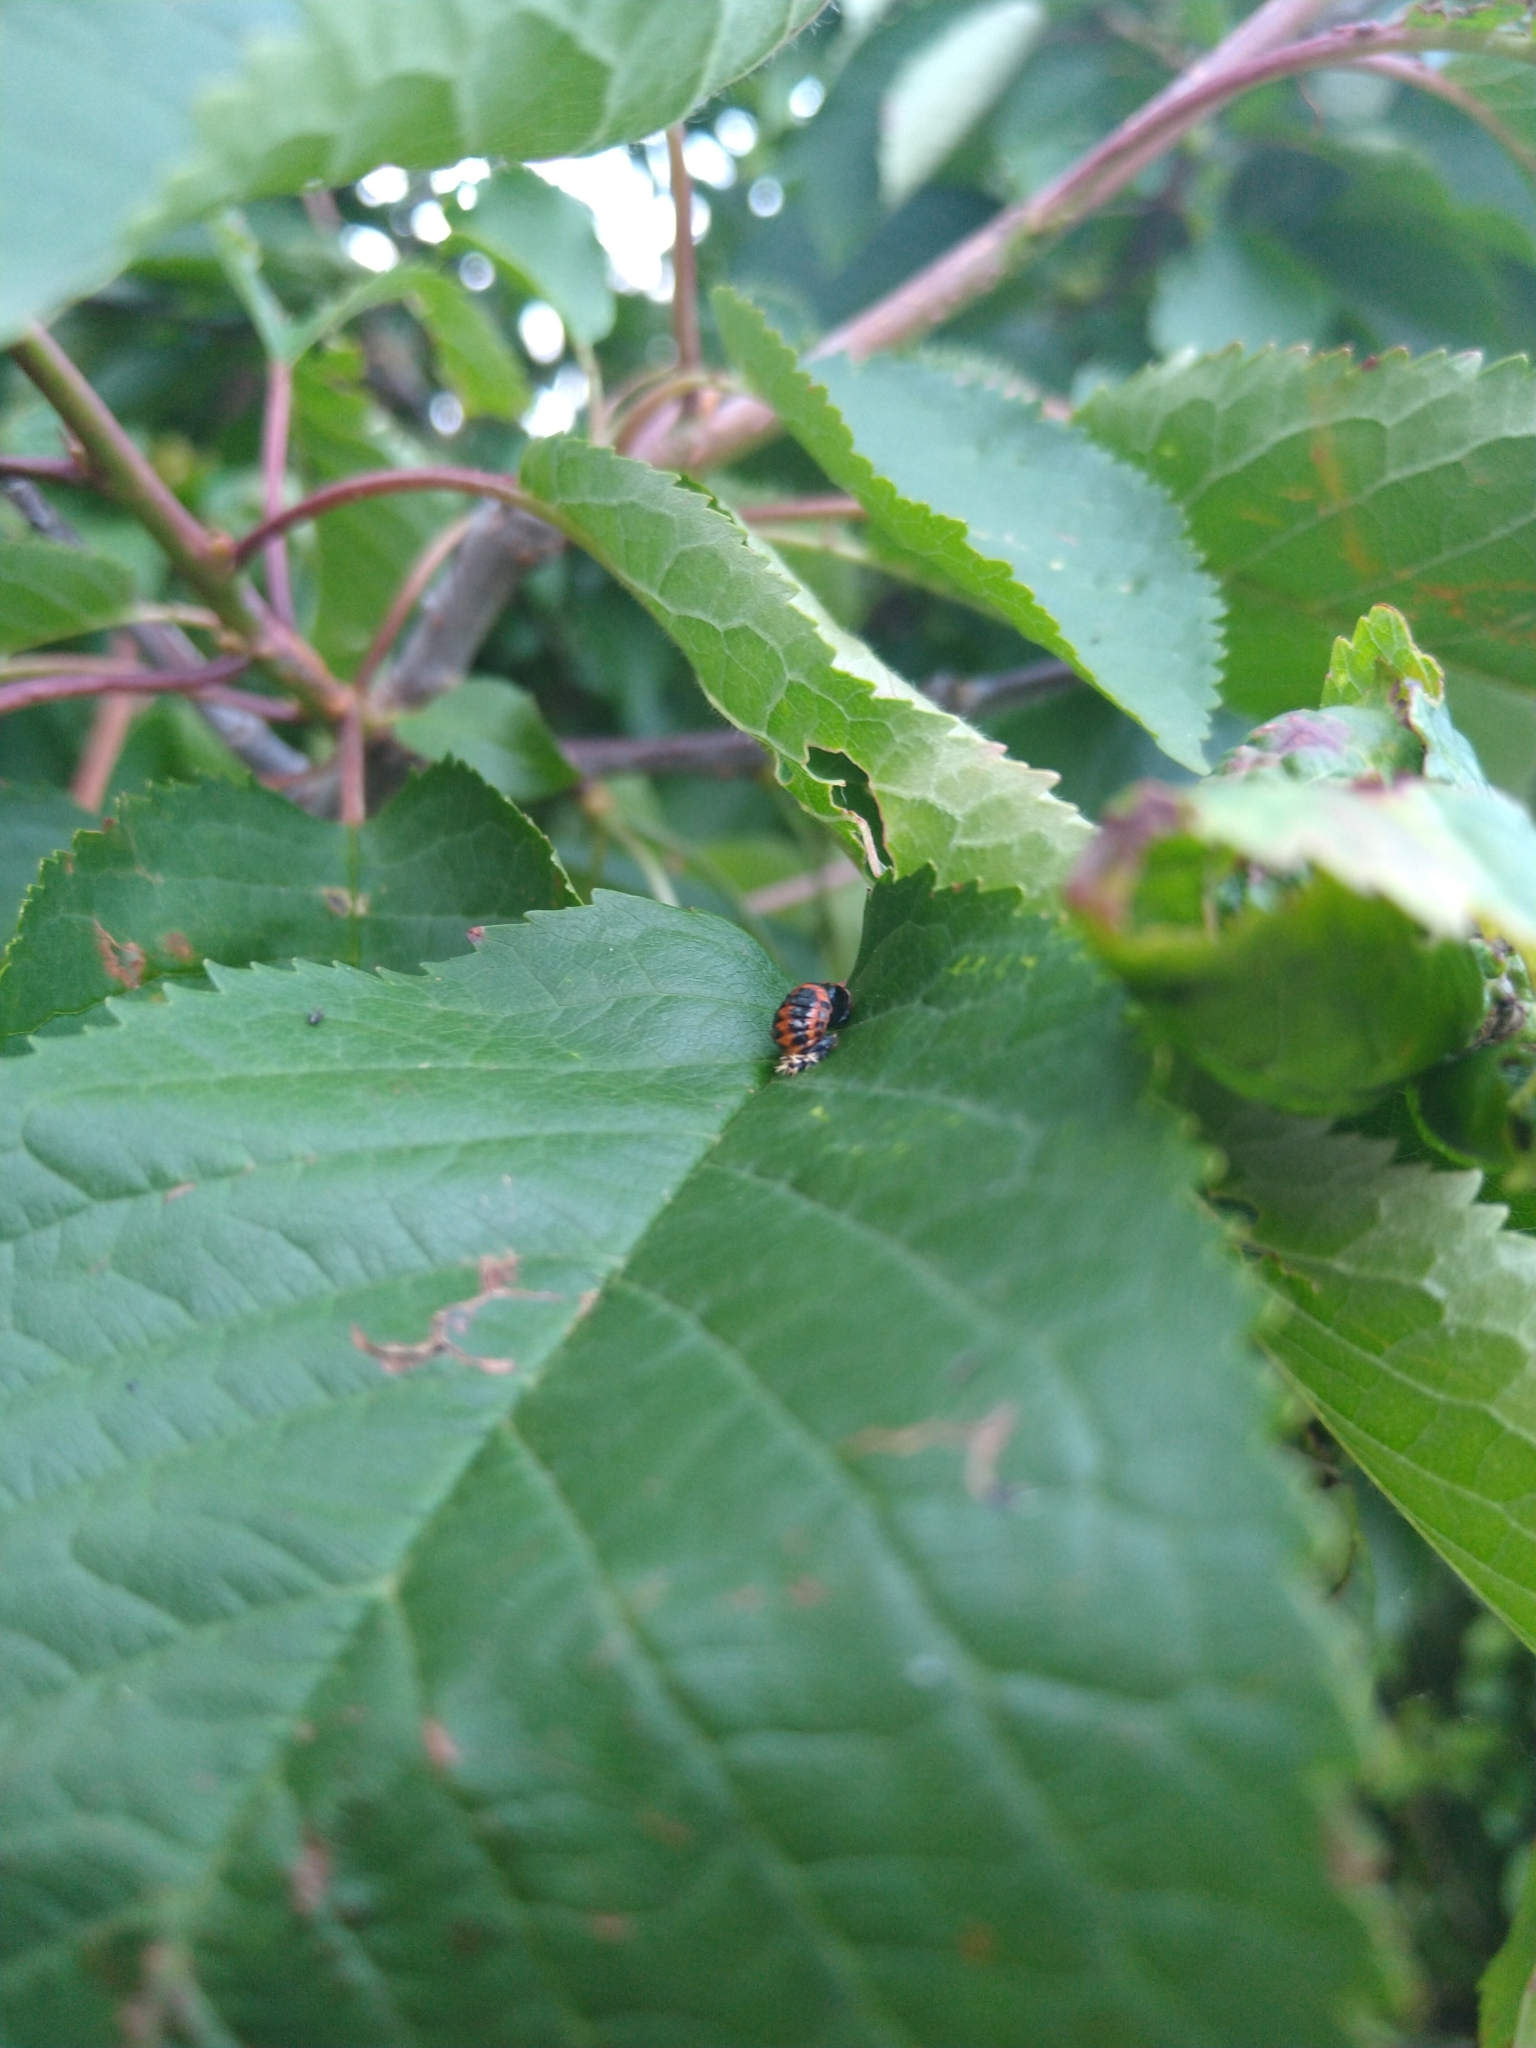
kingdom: Animalia
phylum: Arthropoda
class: Insecta
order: Coleoptera
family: Coccinellidae
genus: Harmonia
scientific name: Harmonia axyridis
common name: Harlequin ladybird
